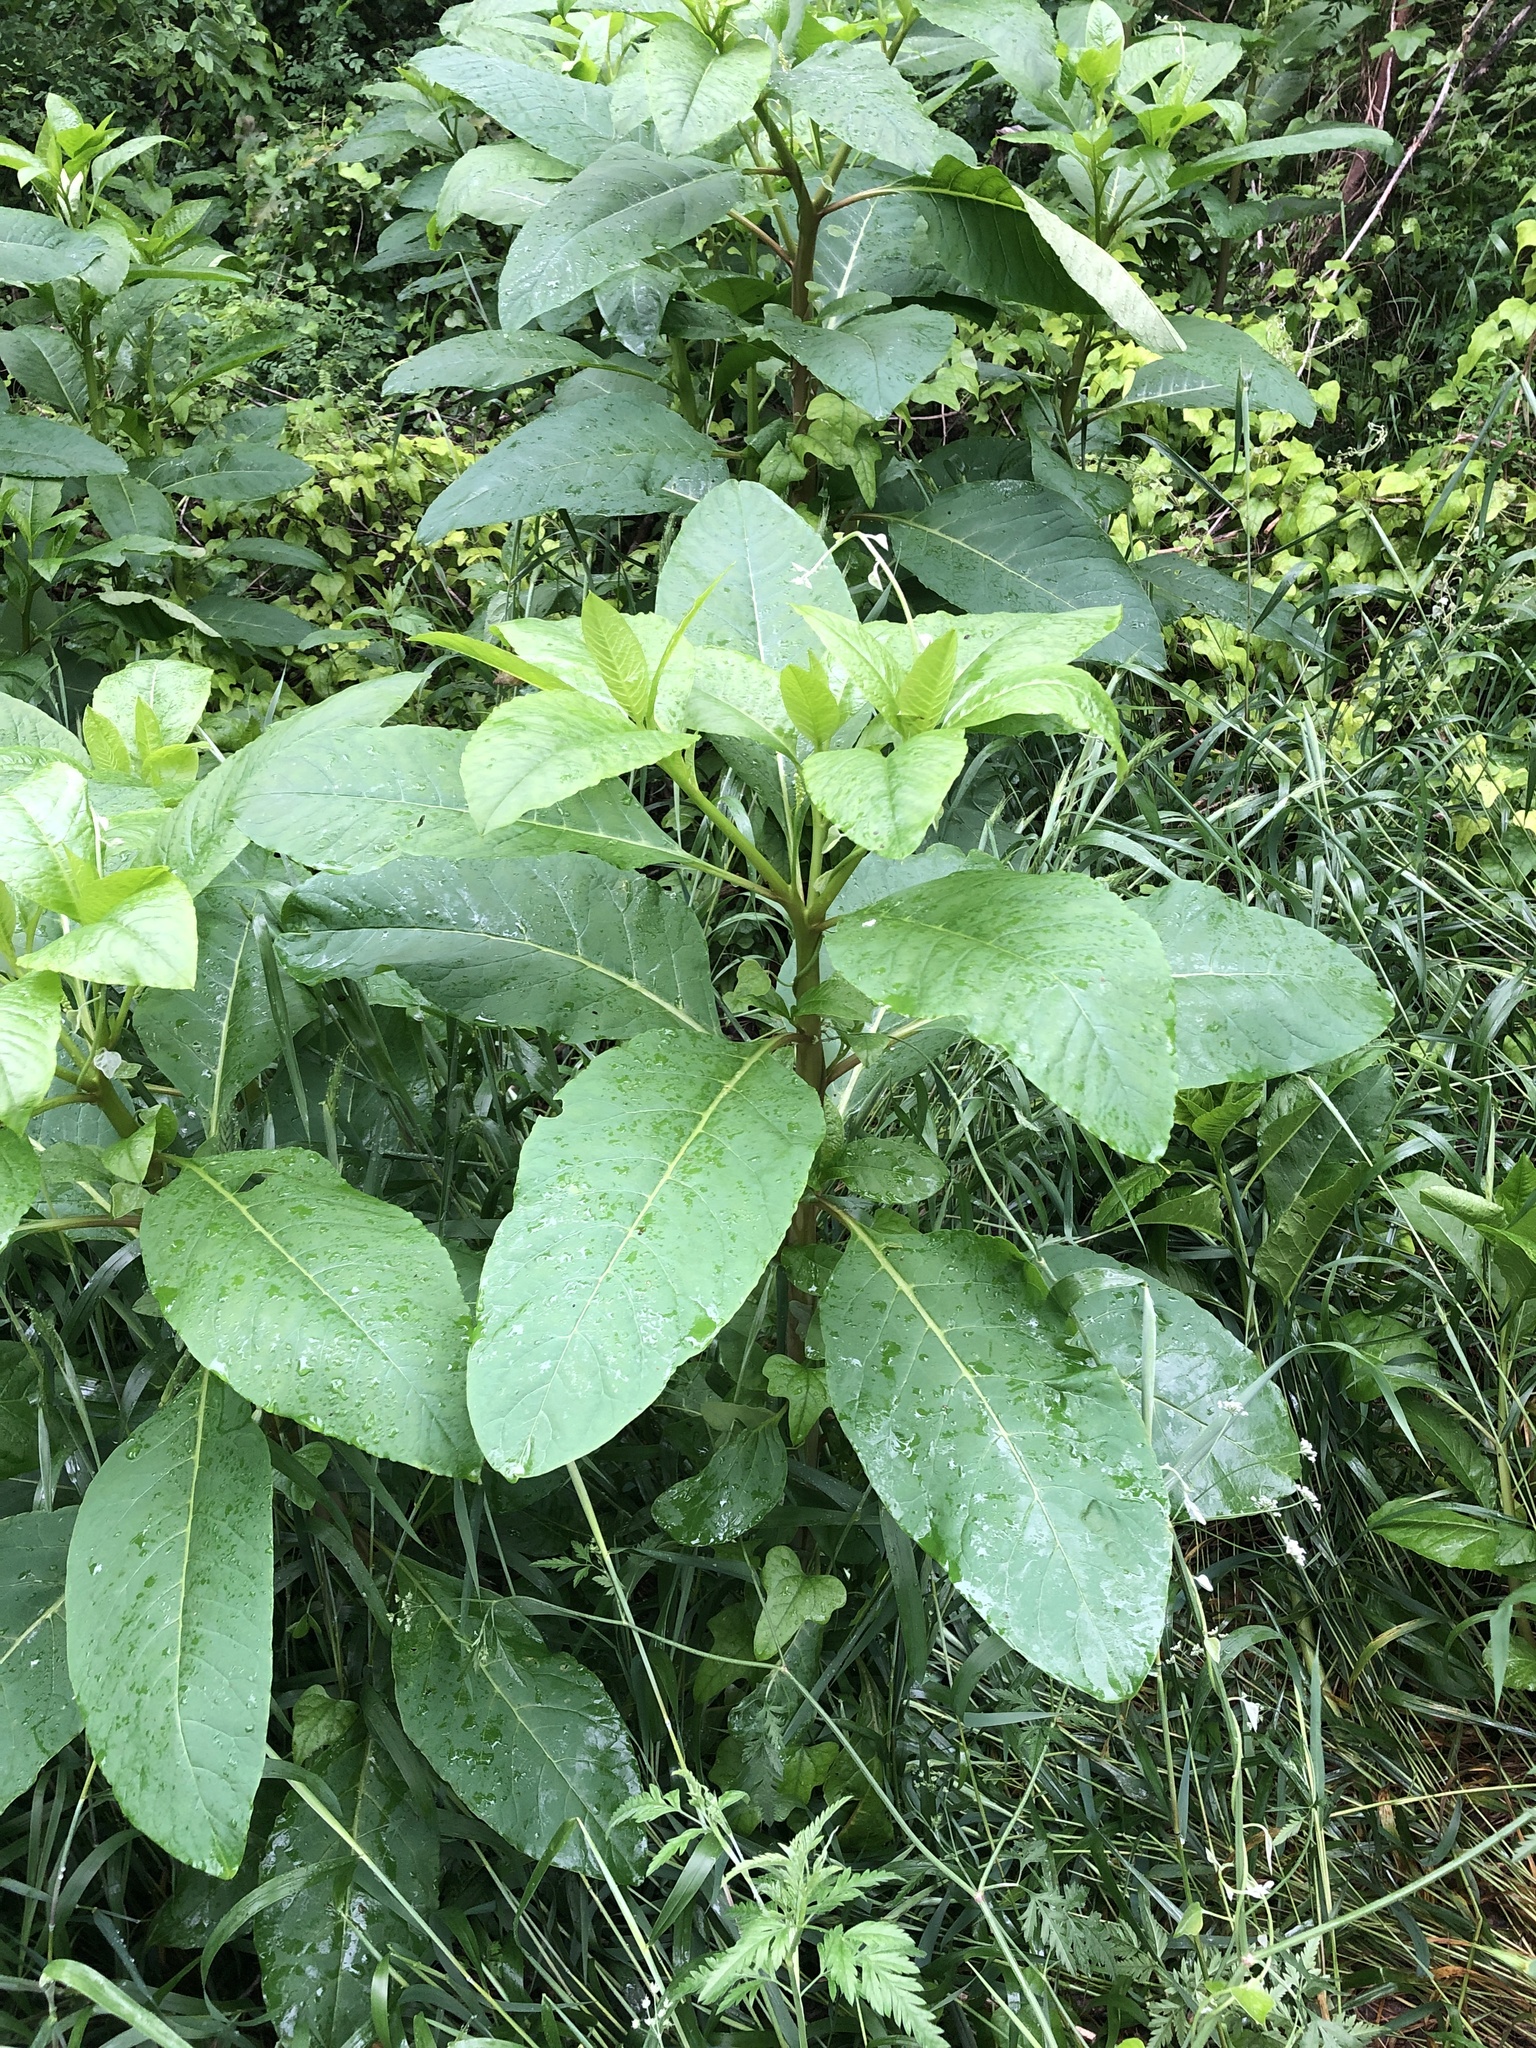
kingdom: Plantae
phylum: Tracheophyta
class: Magnoliopsida
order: Caryophyllales
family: Phytolaccaceae
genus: Phytolacca
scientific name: Phytolacca americana
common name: American pokeweed
